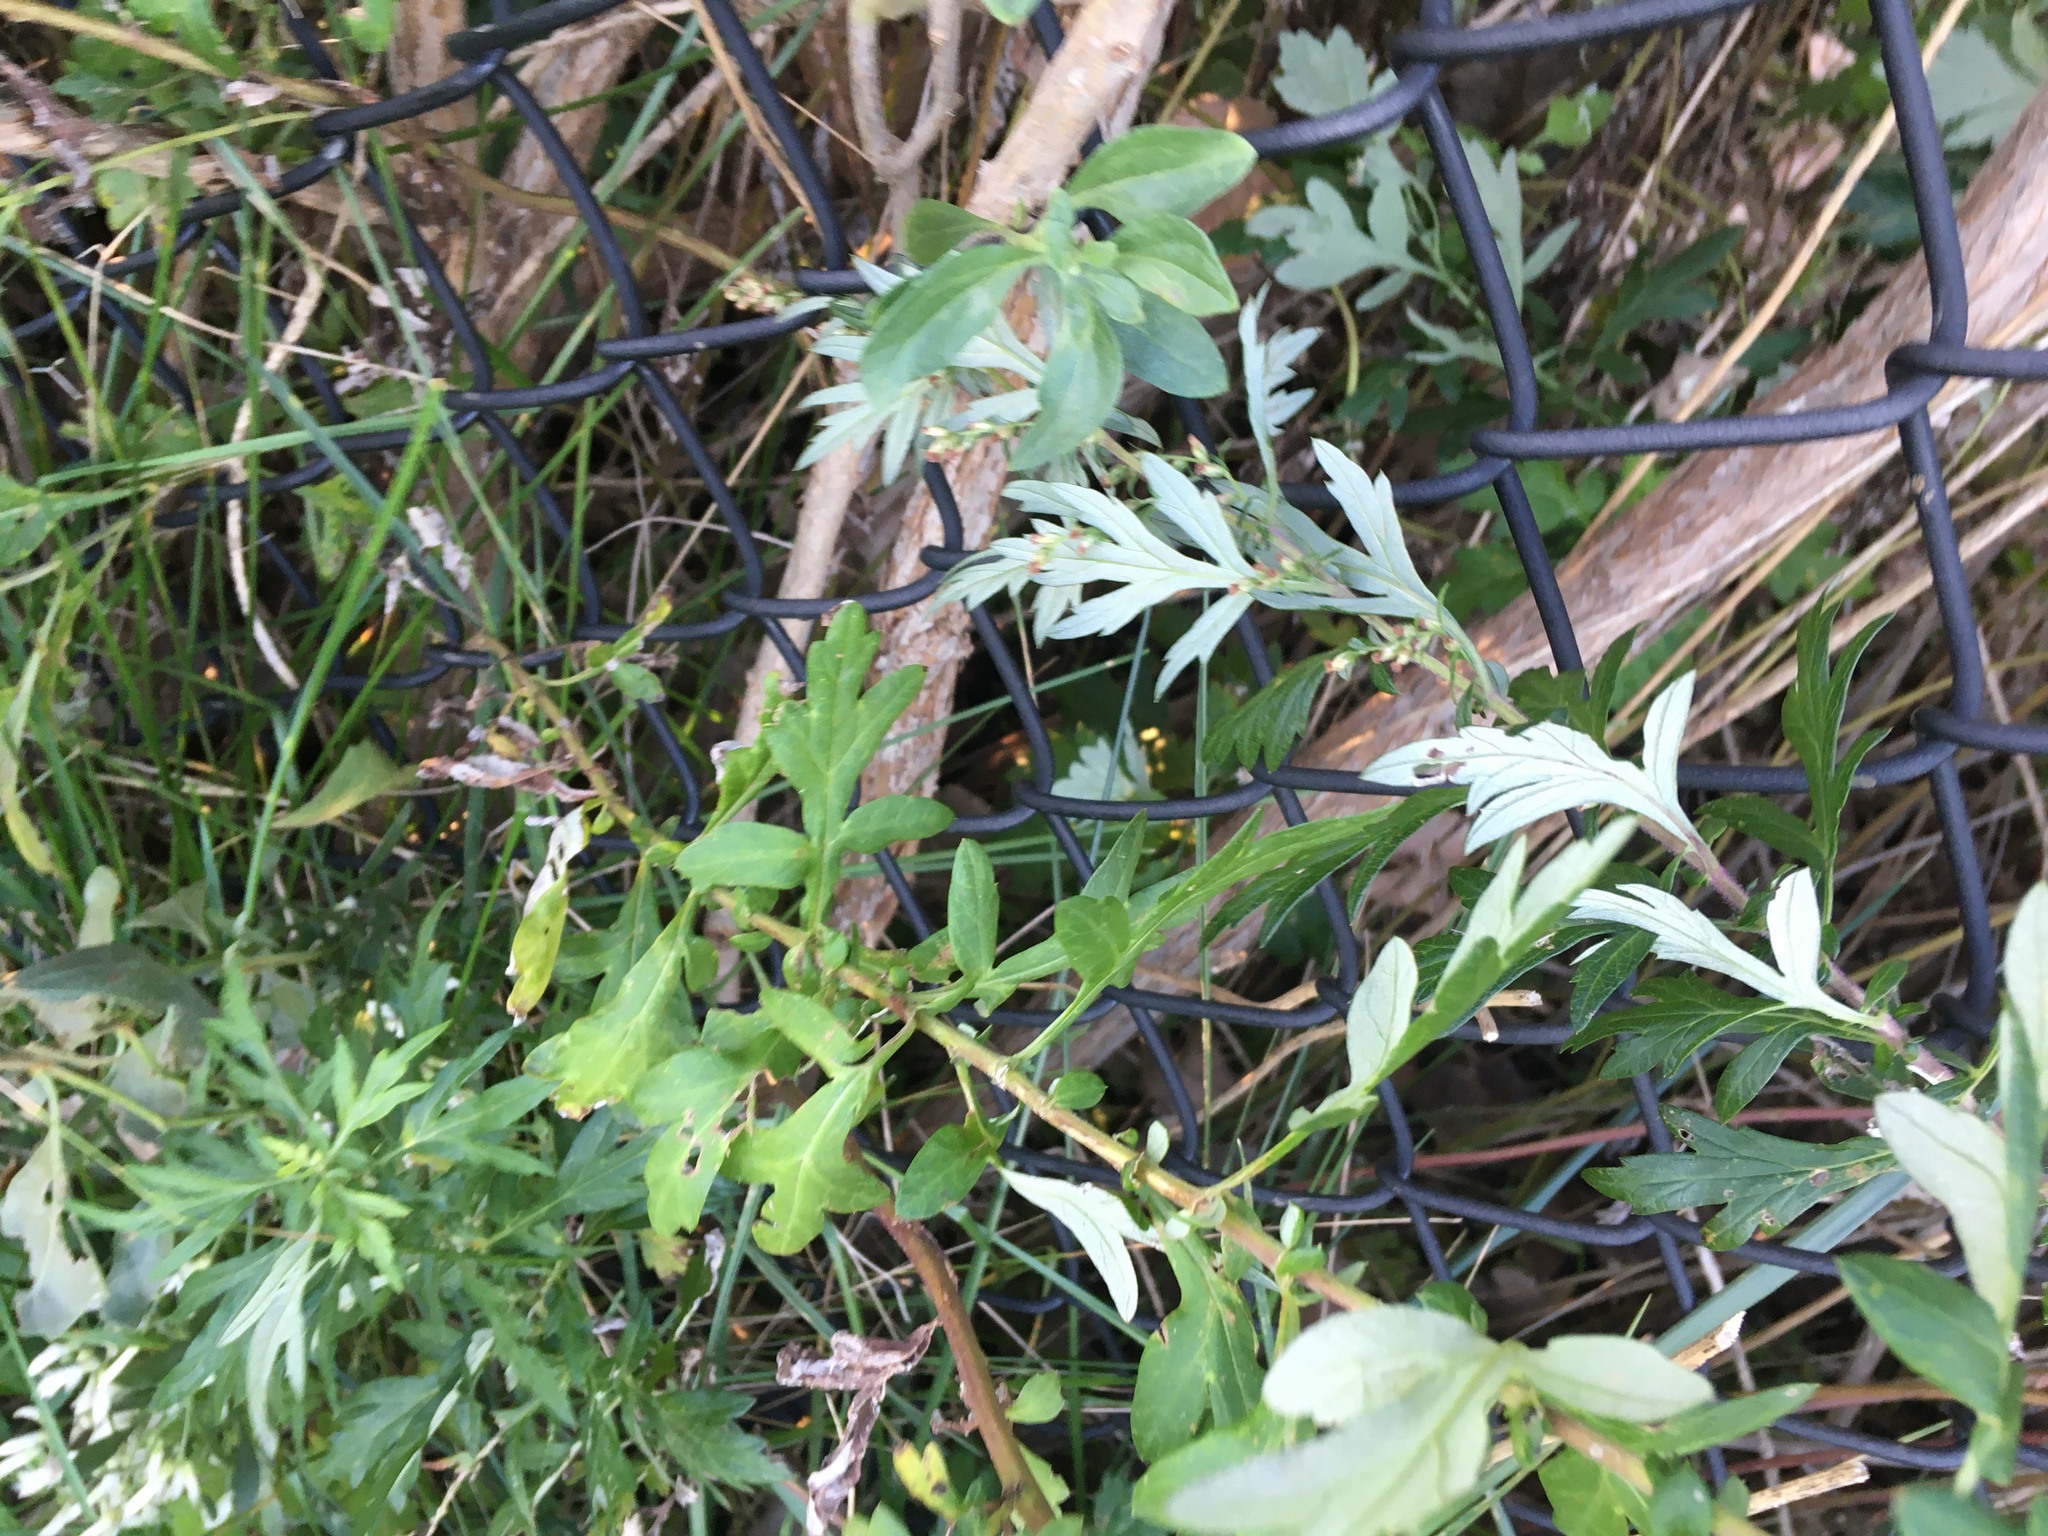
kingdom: Plantae
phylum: Tracheophyta
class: Magnoliopsida
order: Asterales
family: Asteraceae
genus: Artemisia
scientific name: Artemisia vulgaris
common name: Mugwort
